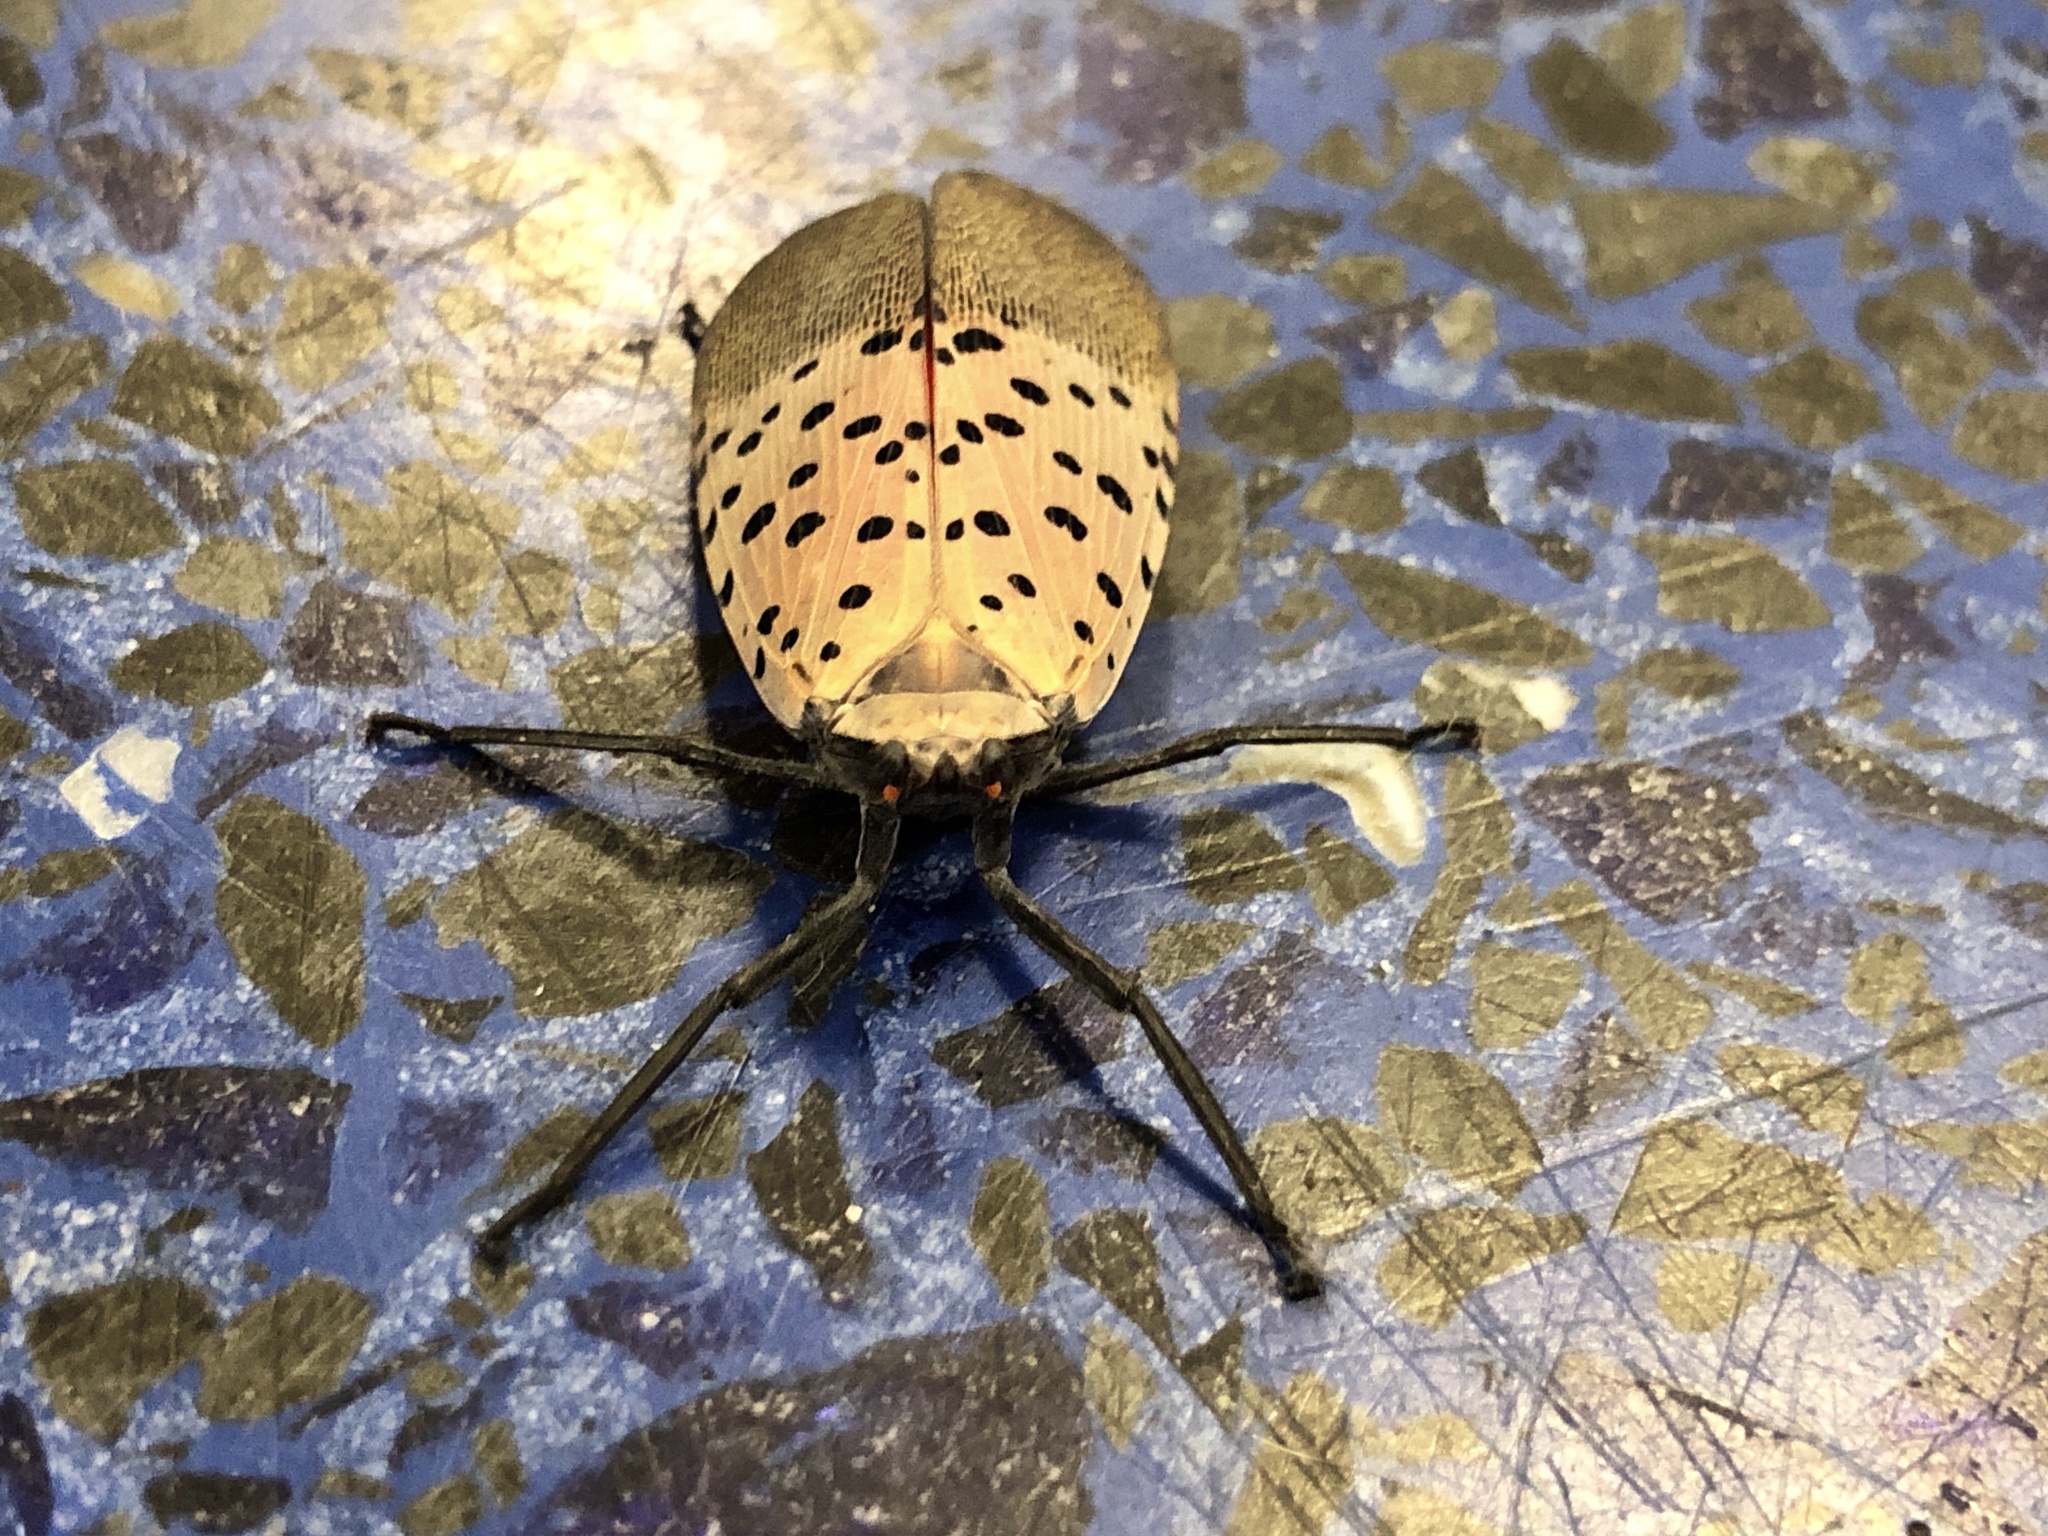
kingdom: Animalia
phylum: Arthropoda
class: Insecta
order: Hemiptera
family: Fulgoridae
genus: Lycorma
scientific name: Lycorma delicatula
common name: Spotted lanternfly
